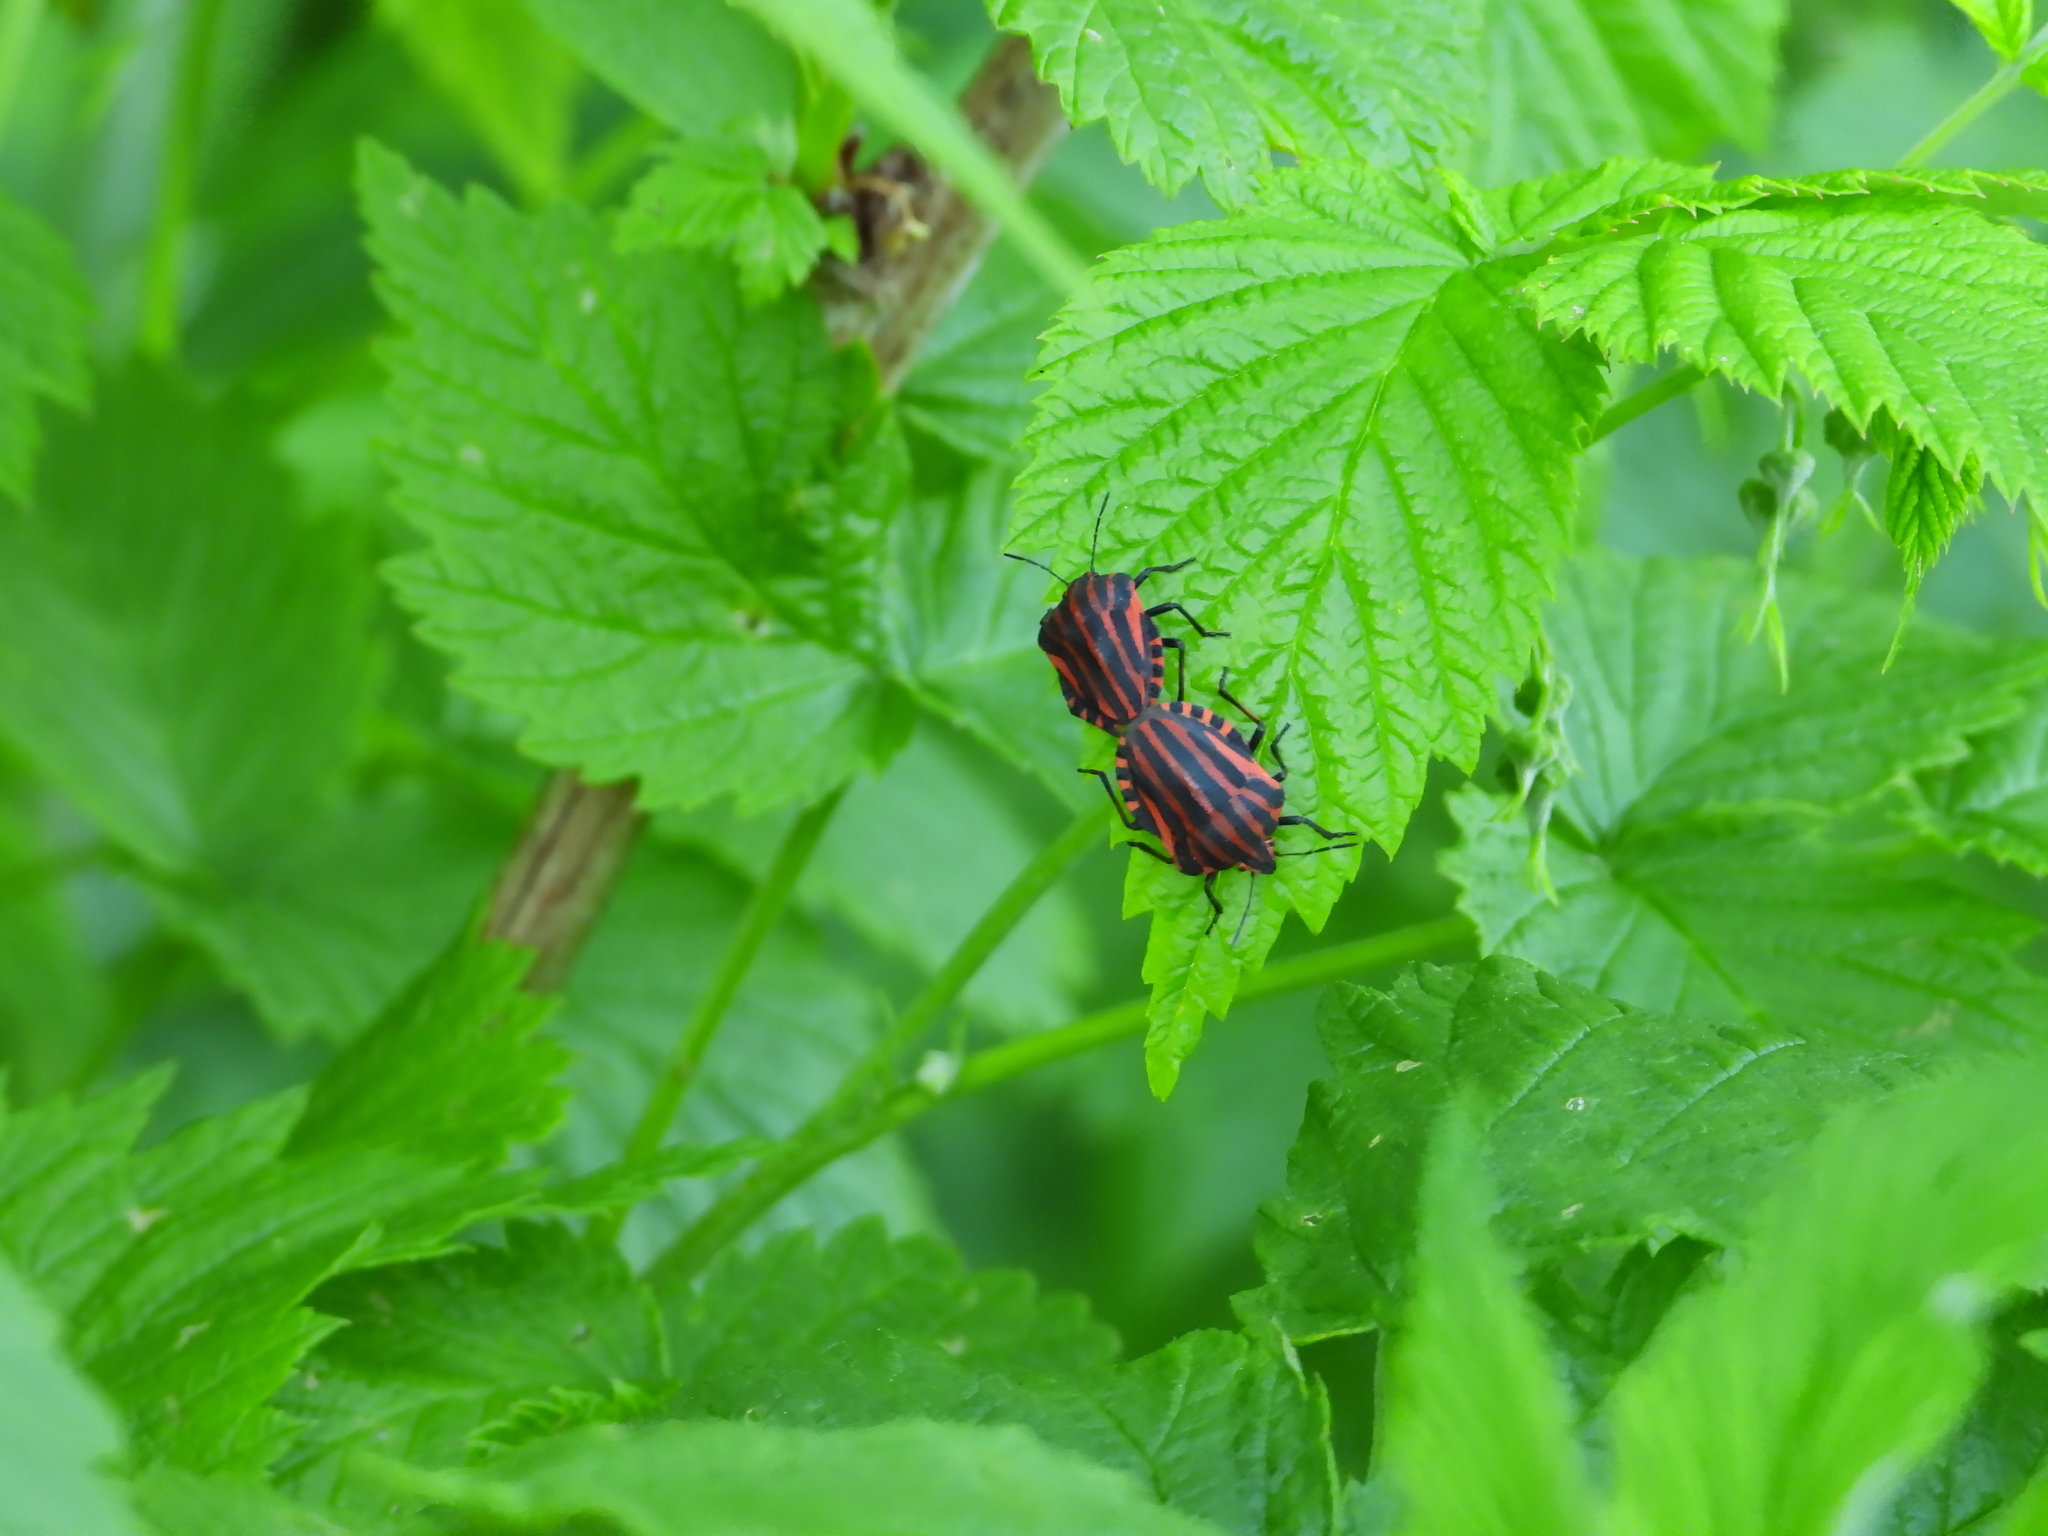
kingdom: Animalia
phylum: Arthropoda
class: Insecta
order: Hemiptera
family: Pentatomidae
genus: Graphosoma
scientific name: Graphosoma italicum
